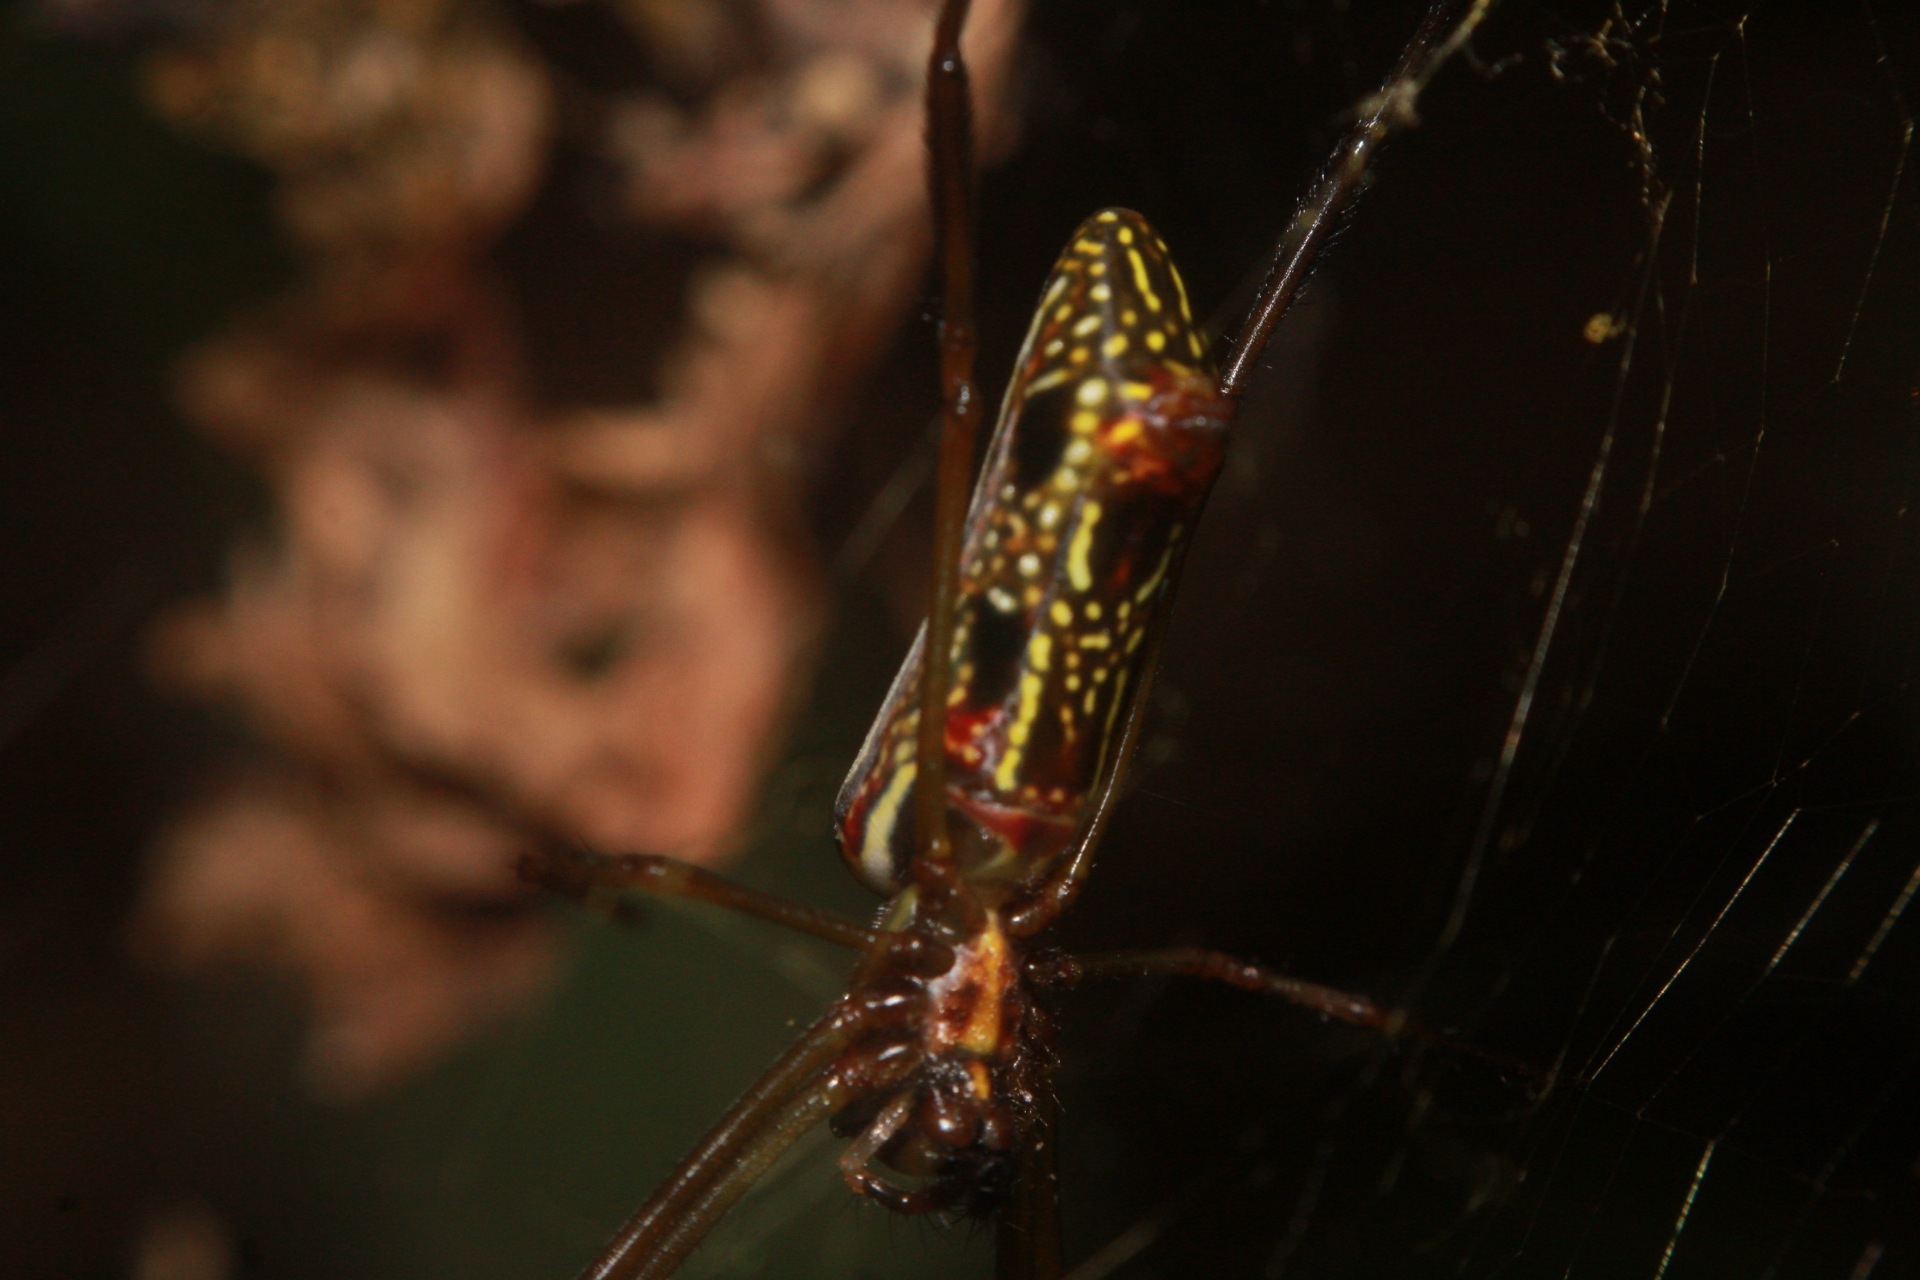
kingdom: Animalia
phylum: Arthropoda
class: Arachnida
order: Araneae
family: Araneidae
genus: Trichonephila
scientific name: Trichonephila clavipes
